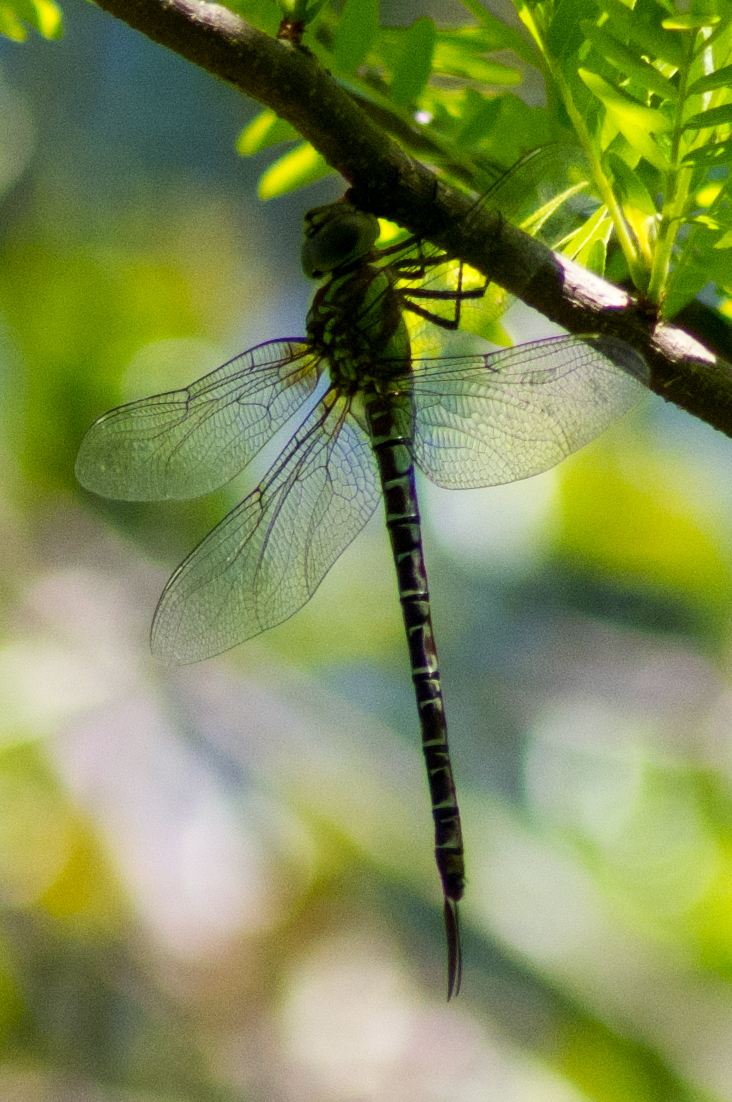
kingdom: Animalia
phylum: Arthropoda
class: Insecta
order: Odonata
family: Aeshnidae
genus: Coryphaeschna
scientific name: Coryphaeschna ingens
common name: Regal darner
